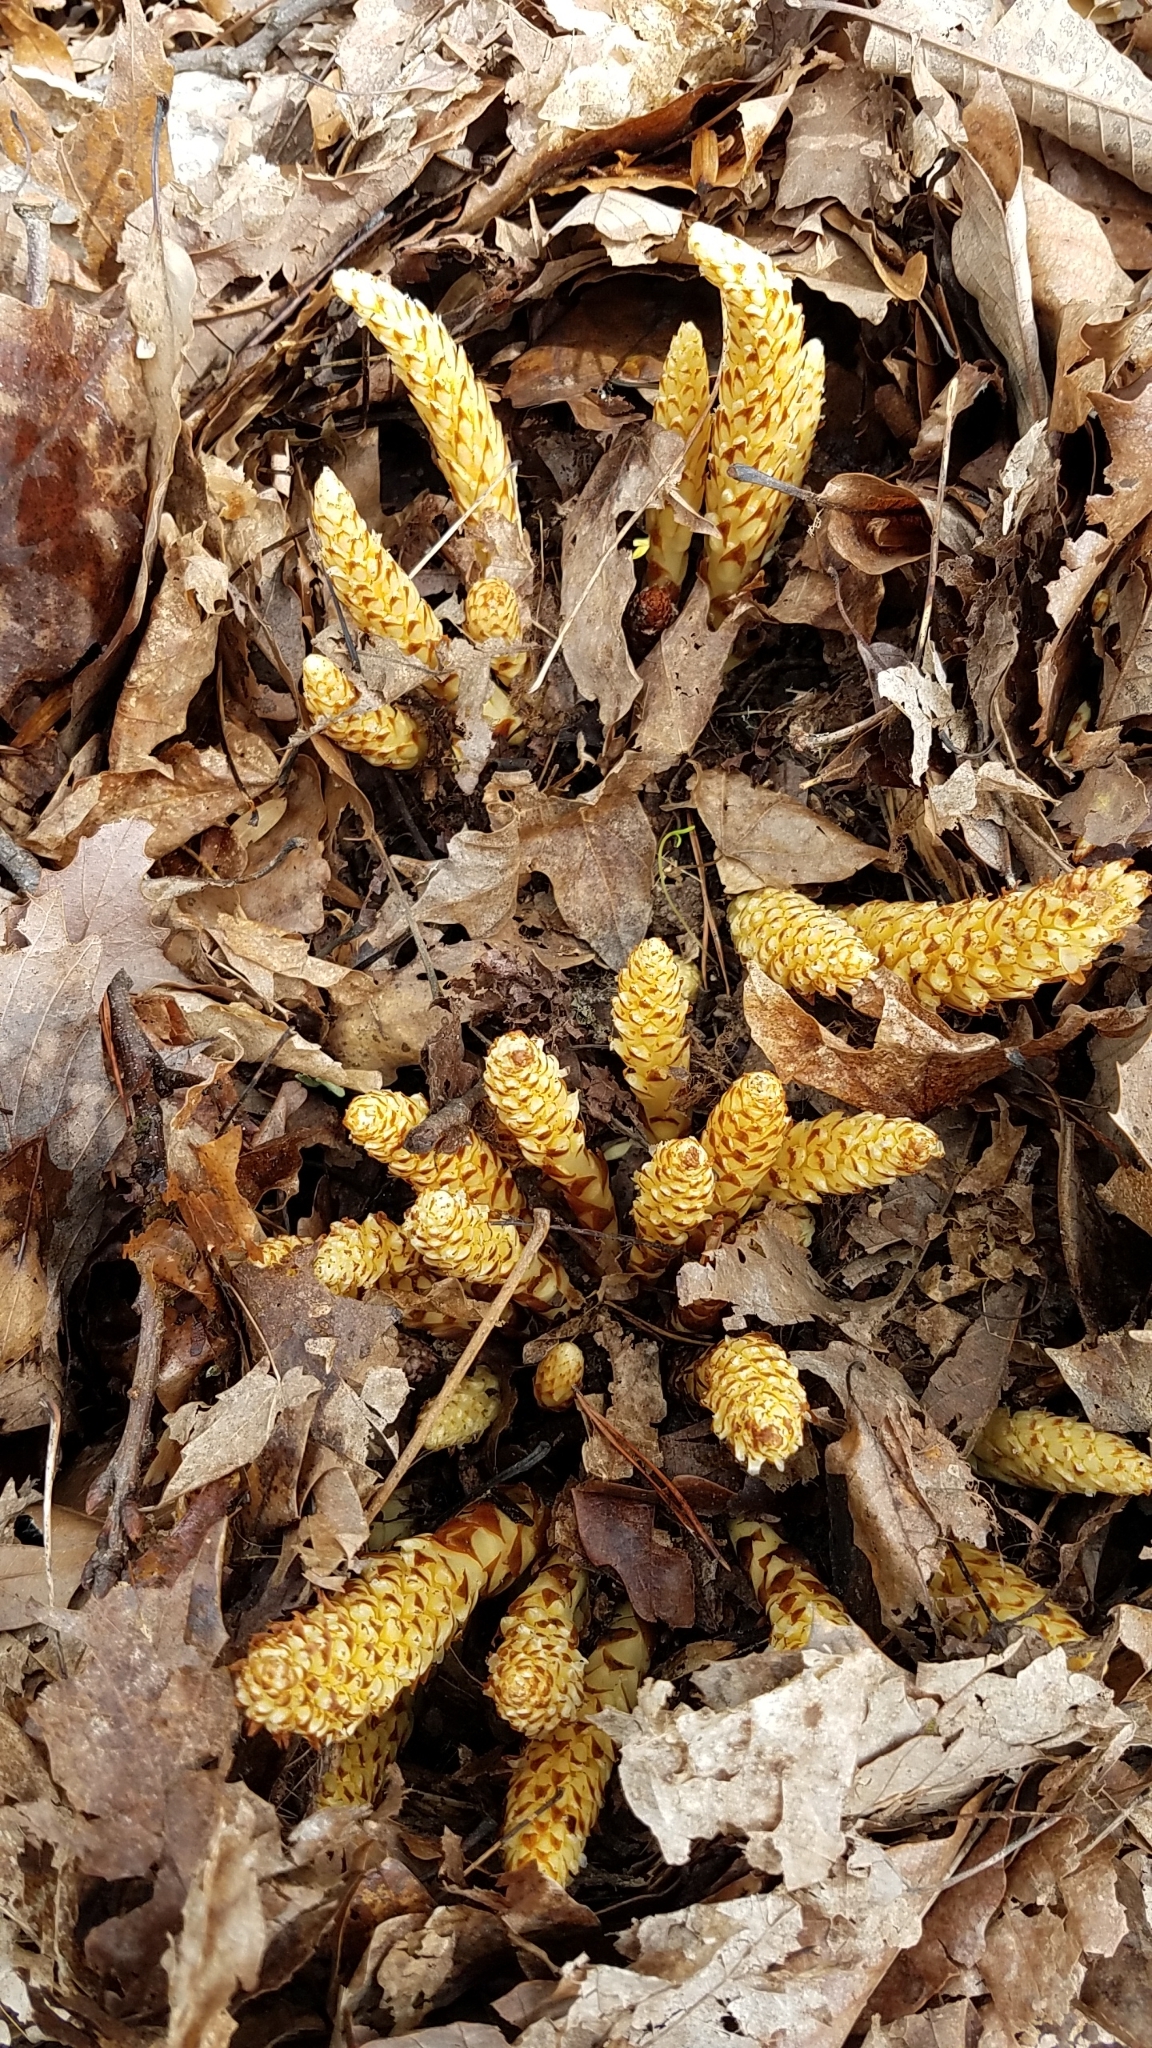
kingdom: Plantae
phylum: Tracheophyta
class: Magnoliopsida
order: Lamiales
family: Orobanchaceae
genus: Conopholis
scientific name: Conopholis americana
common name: American cancer-root
